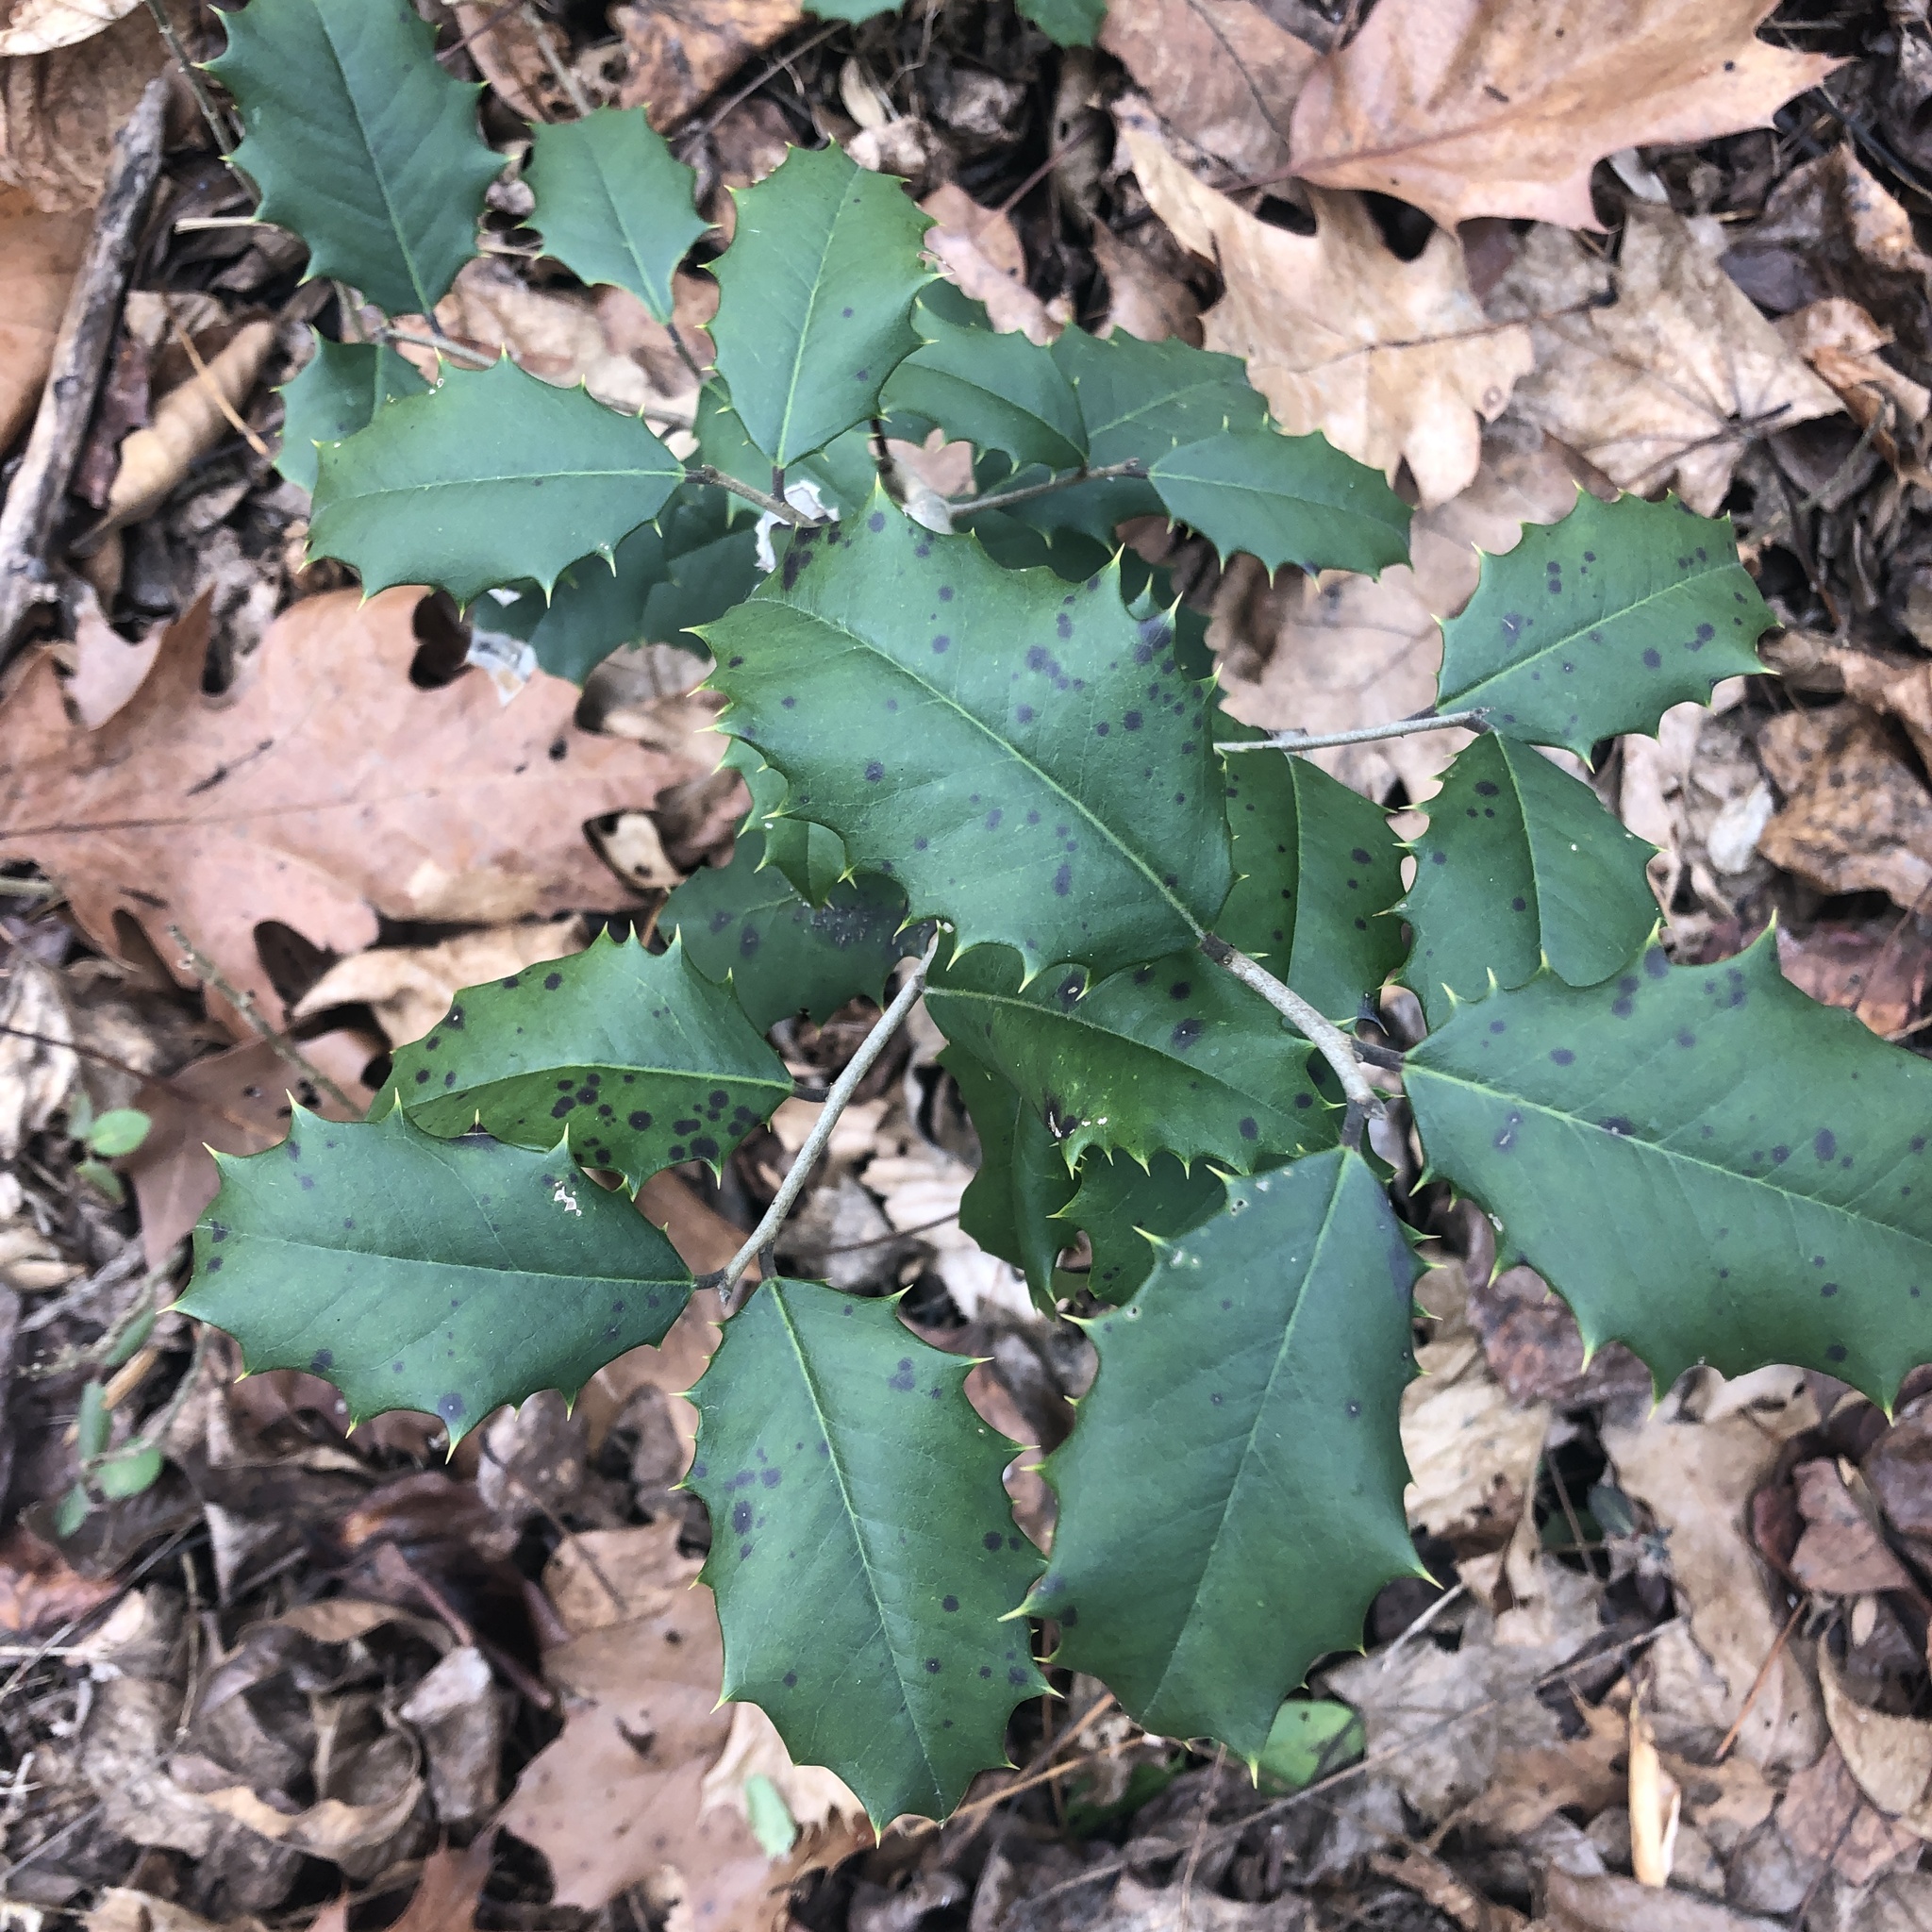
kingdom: Plantae
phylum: Tracheophyta
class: Magnoliopsida
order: Aquifoliales
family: Aquifoliaceae
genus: Ilex
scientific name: Ilex opaca
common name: American holly
